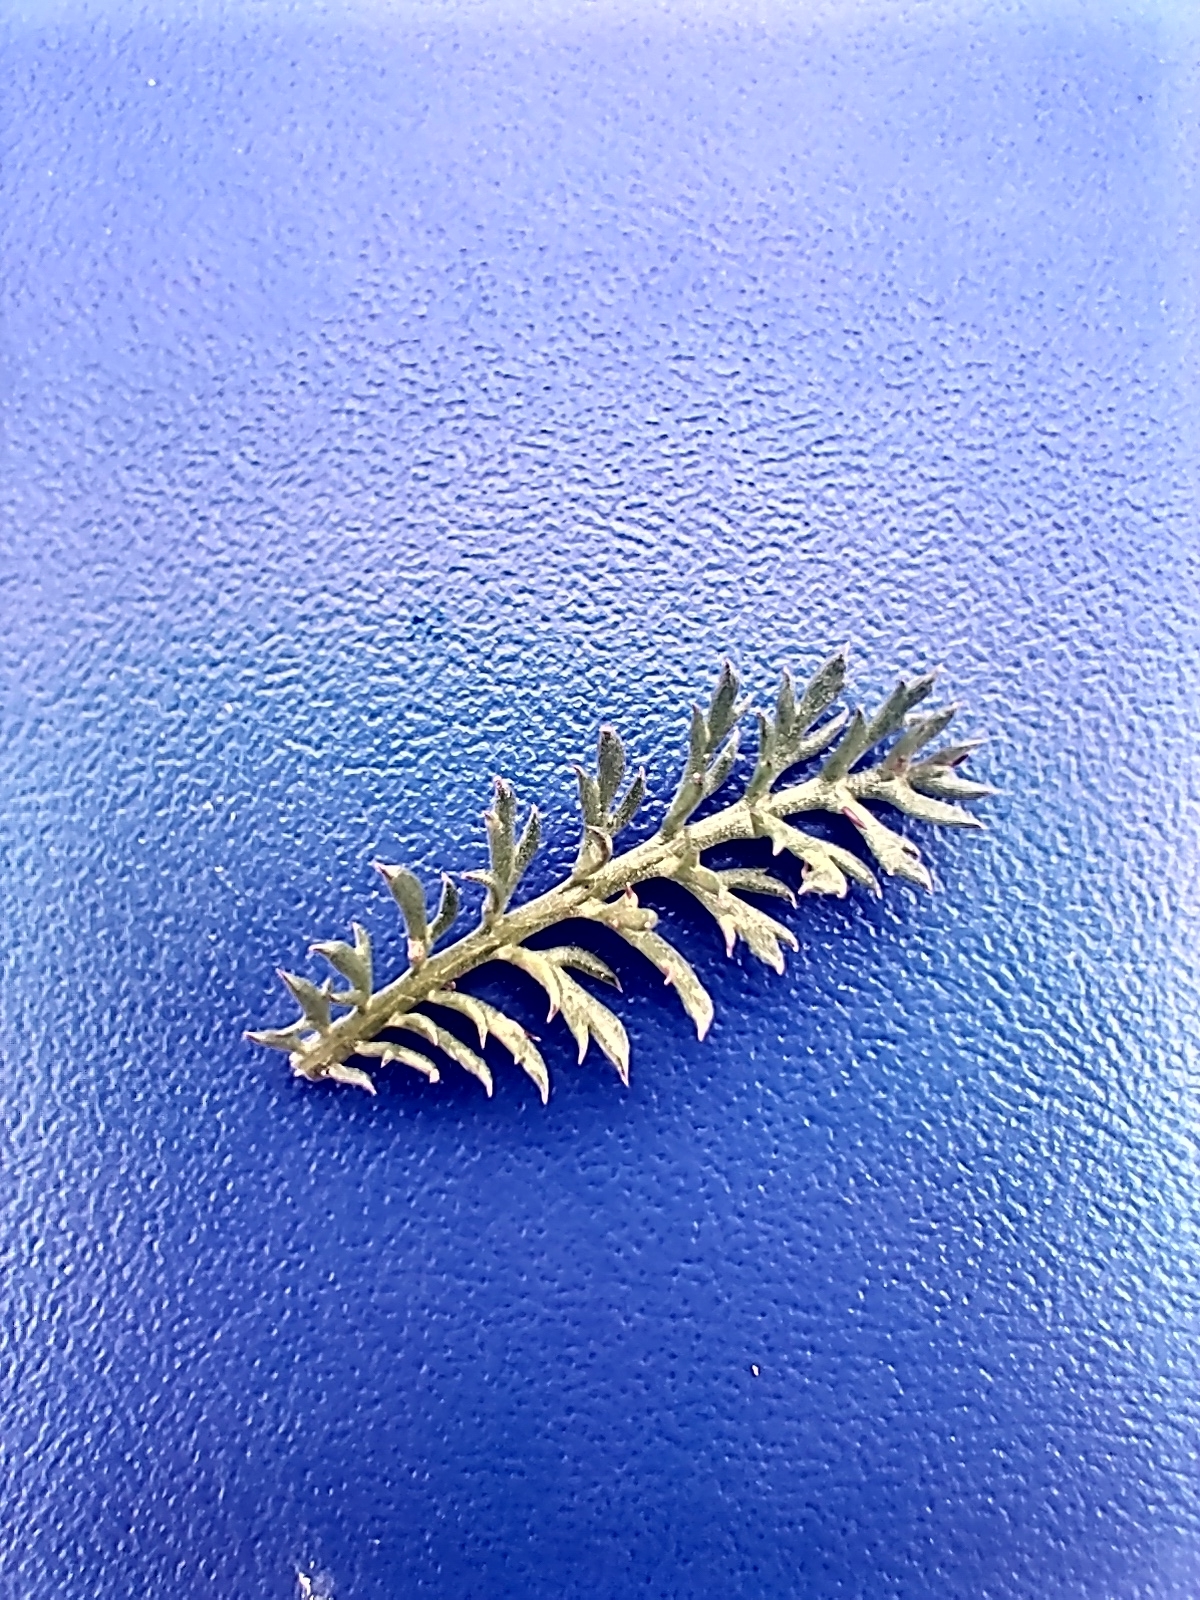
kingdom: Plantae
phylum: Tracheophyta
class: Magnoliopsida
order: Asterales
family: Asteraceae
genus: Achillea
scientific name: Achillea millefolium
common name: Yarrow
